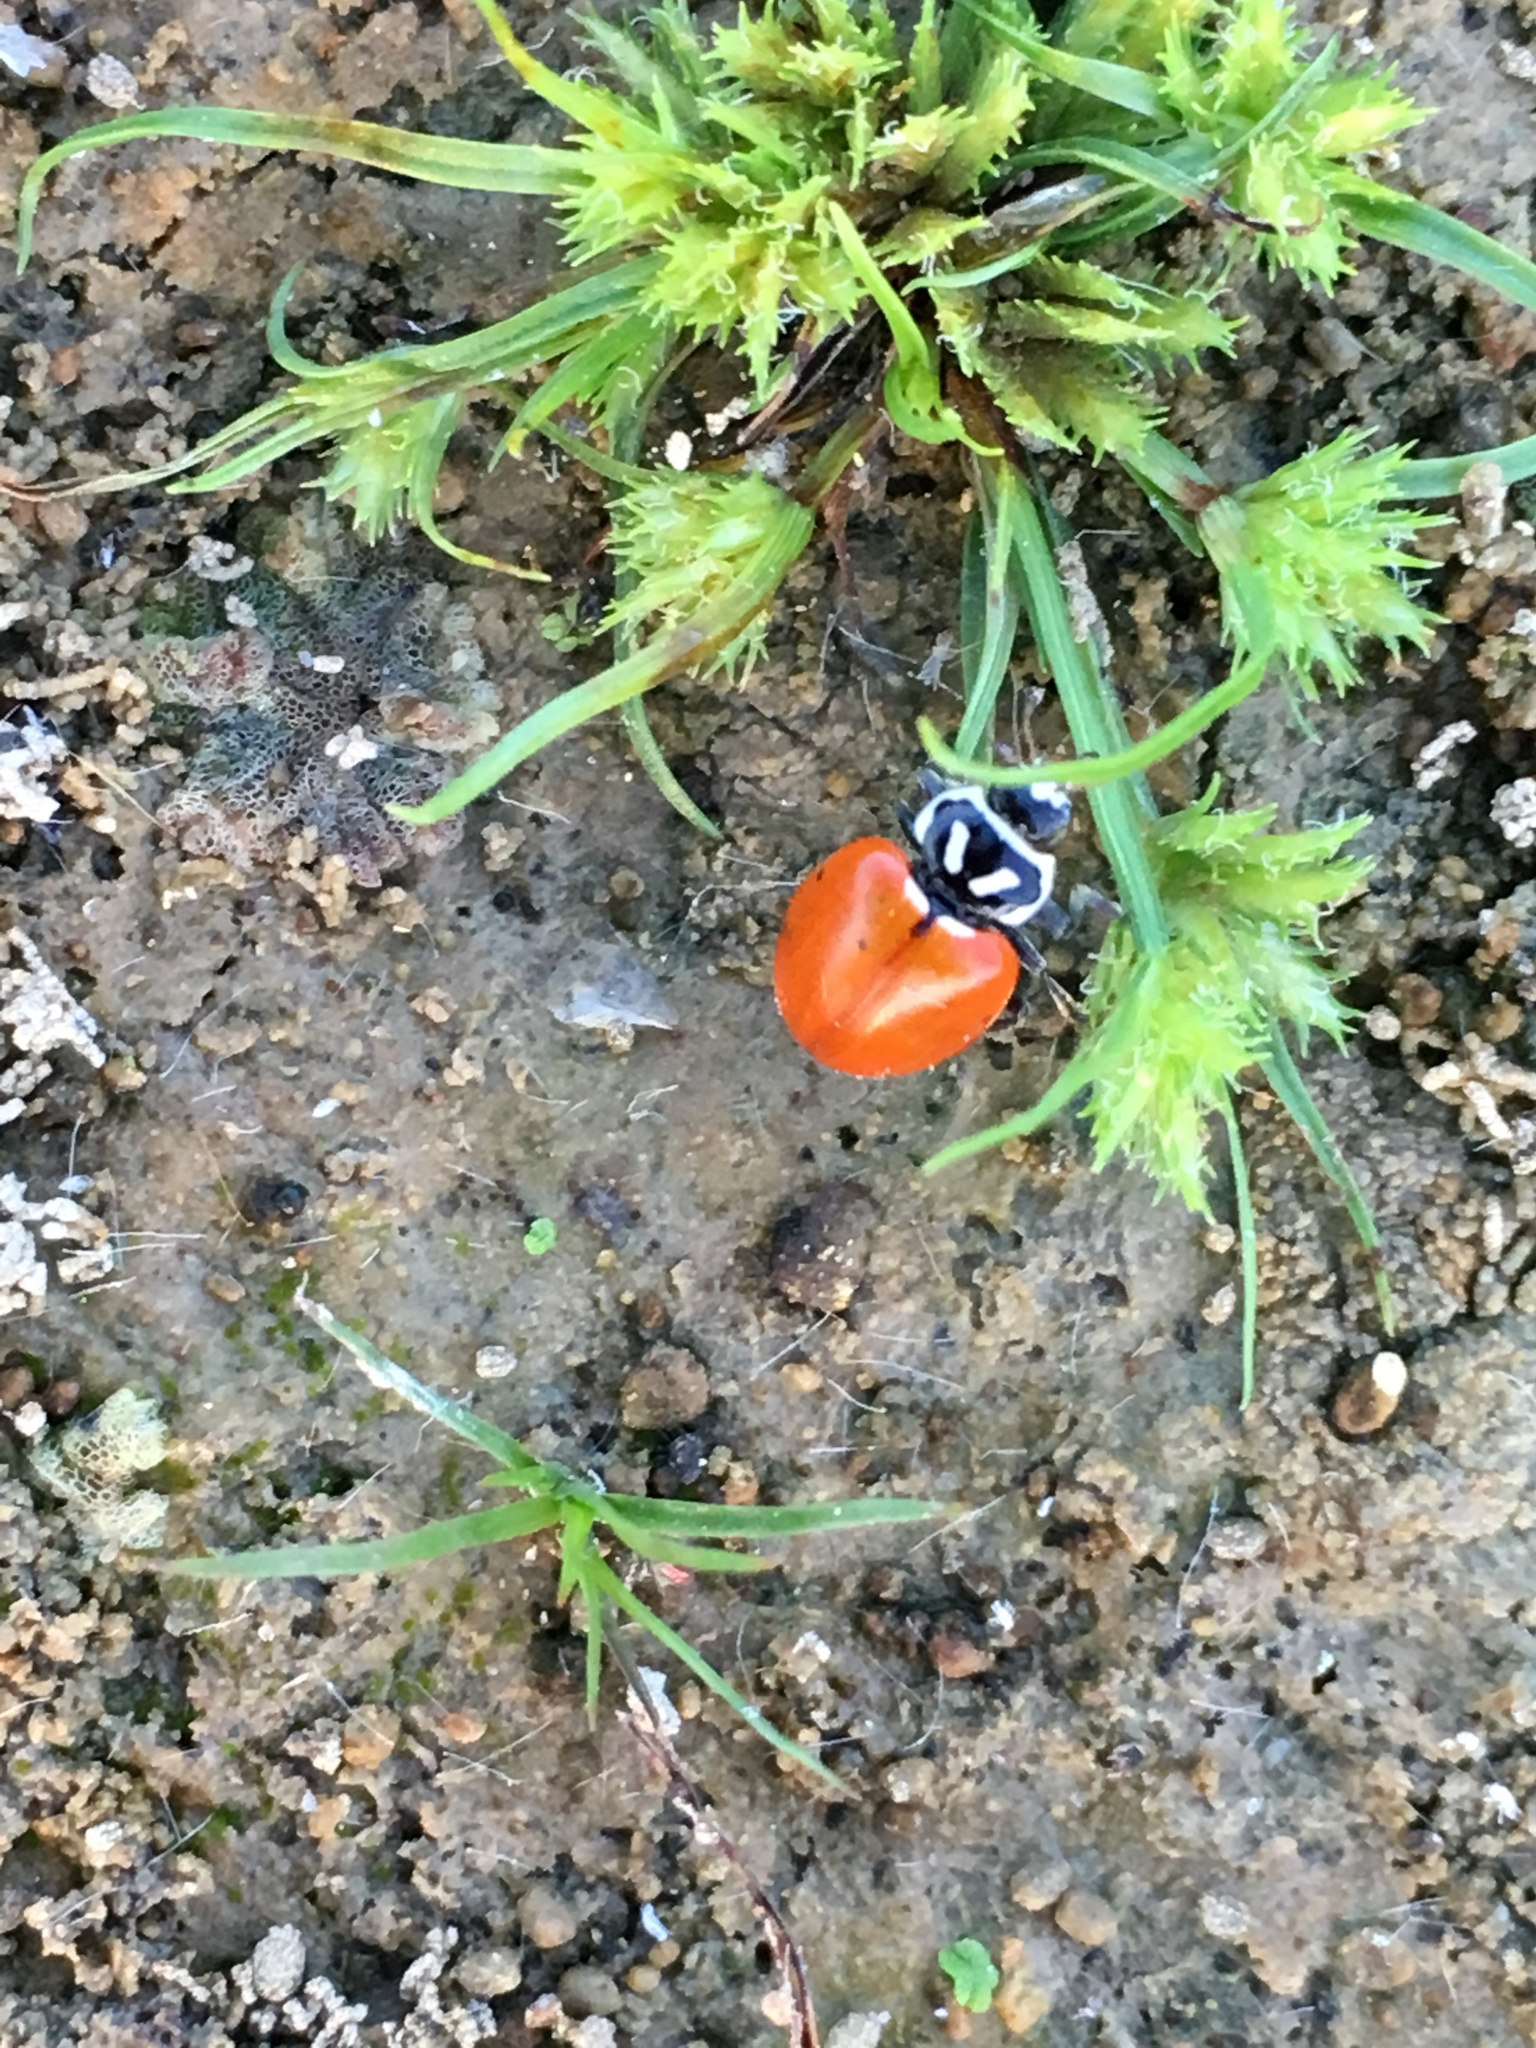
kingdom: Animalia
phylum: Arthropoda
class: Insecta
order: Coleoptera
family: Coccinellidae
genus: Hippodamia
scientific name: Hippodamia convergens
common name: Convergent lady beetle
